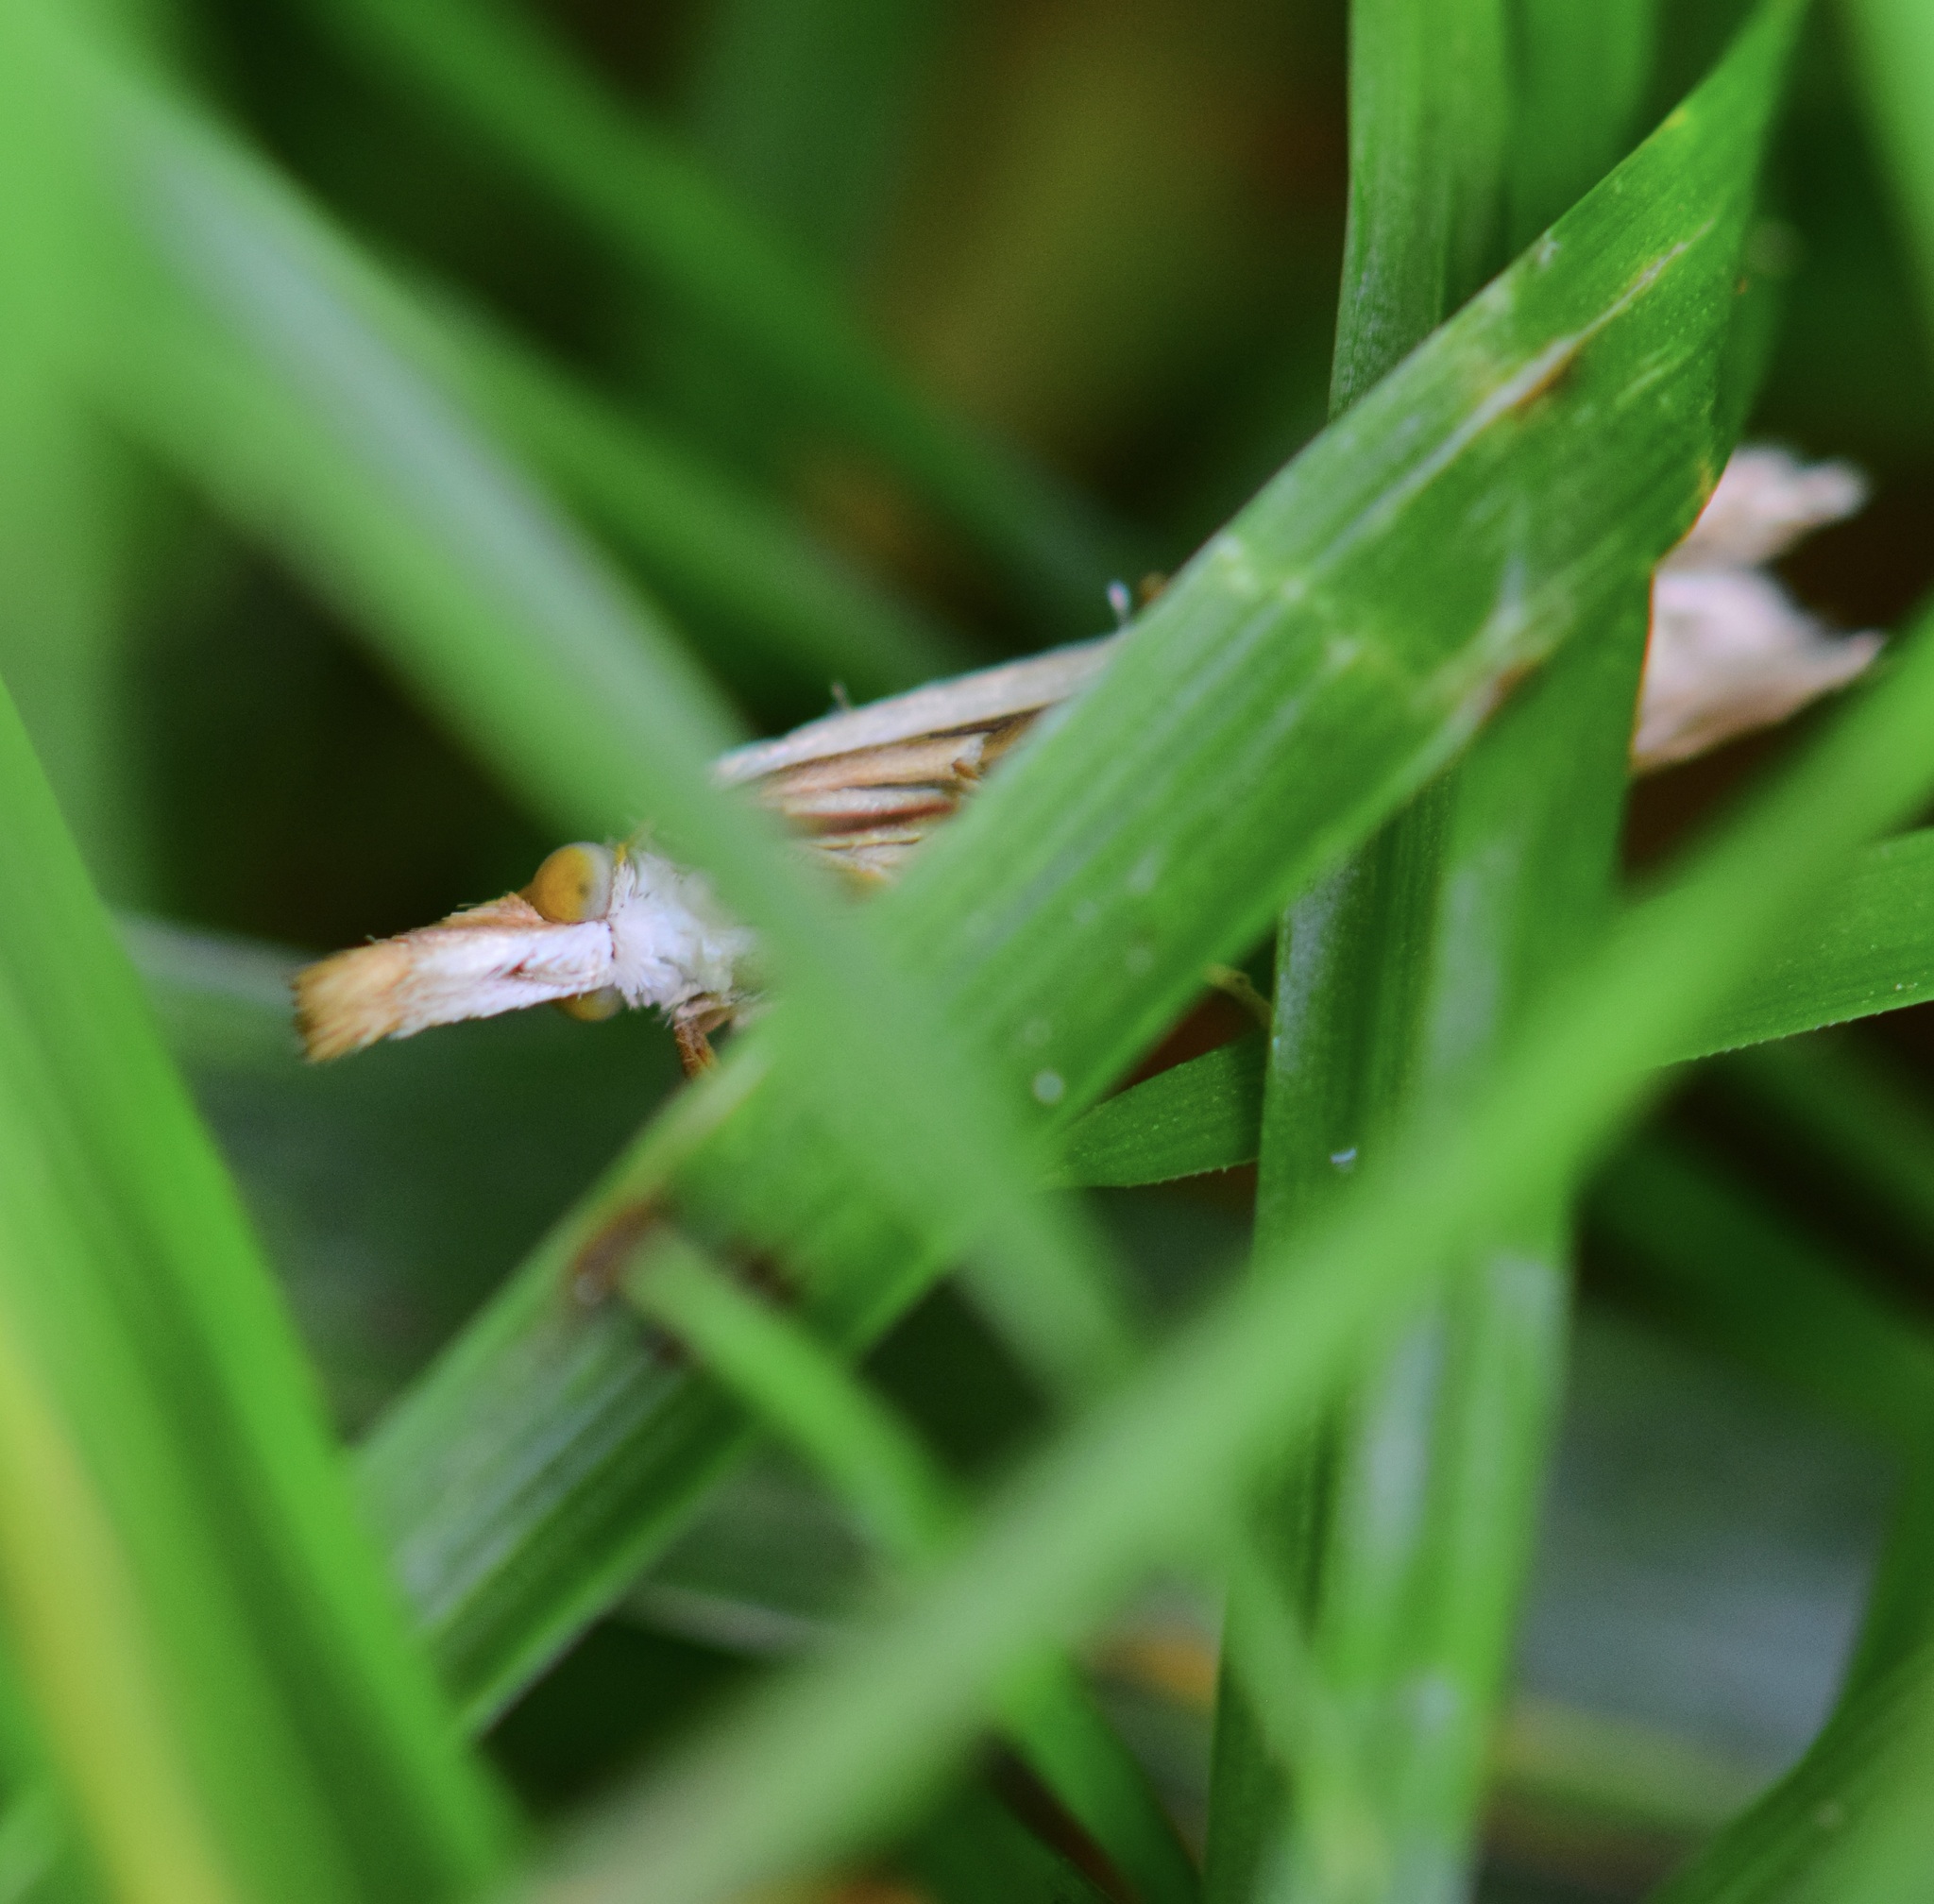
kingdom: Animalia
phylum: Arthropoda
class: Insecta
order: Lepidoptera
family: Crambidae
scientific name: Crambidae
